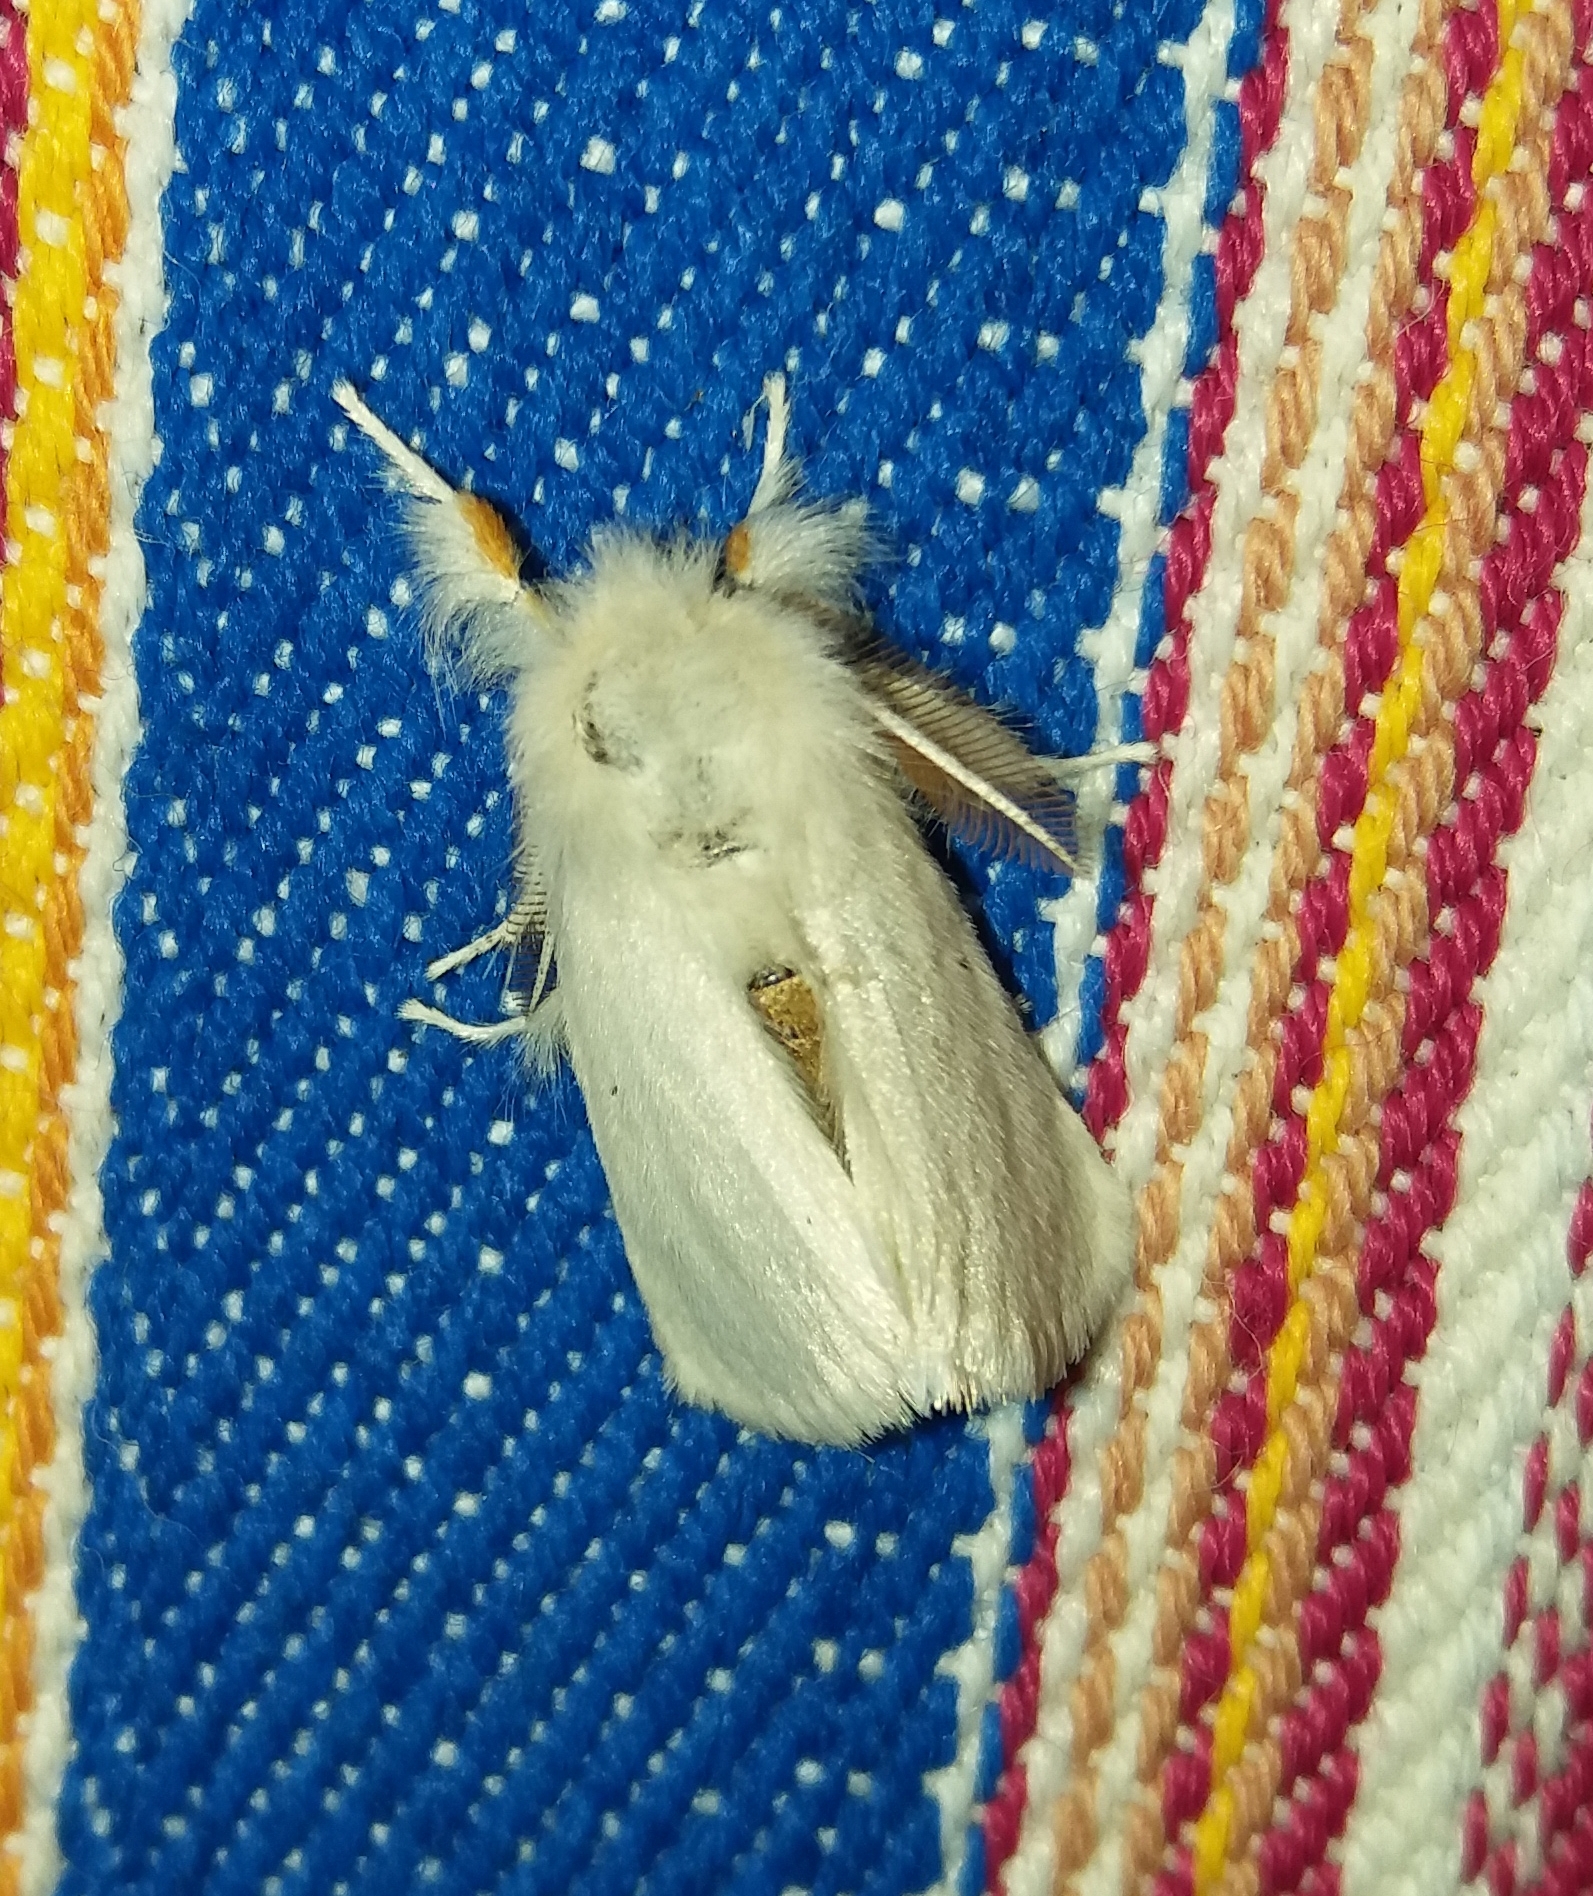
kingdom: Animalia
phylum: Arthropoda
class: Insecta
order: Lepidoptera
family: Erebidae
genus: Euproctis
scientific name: Euproctis chrysorrhoea
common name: Brown-tail
